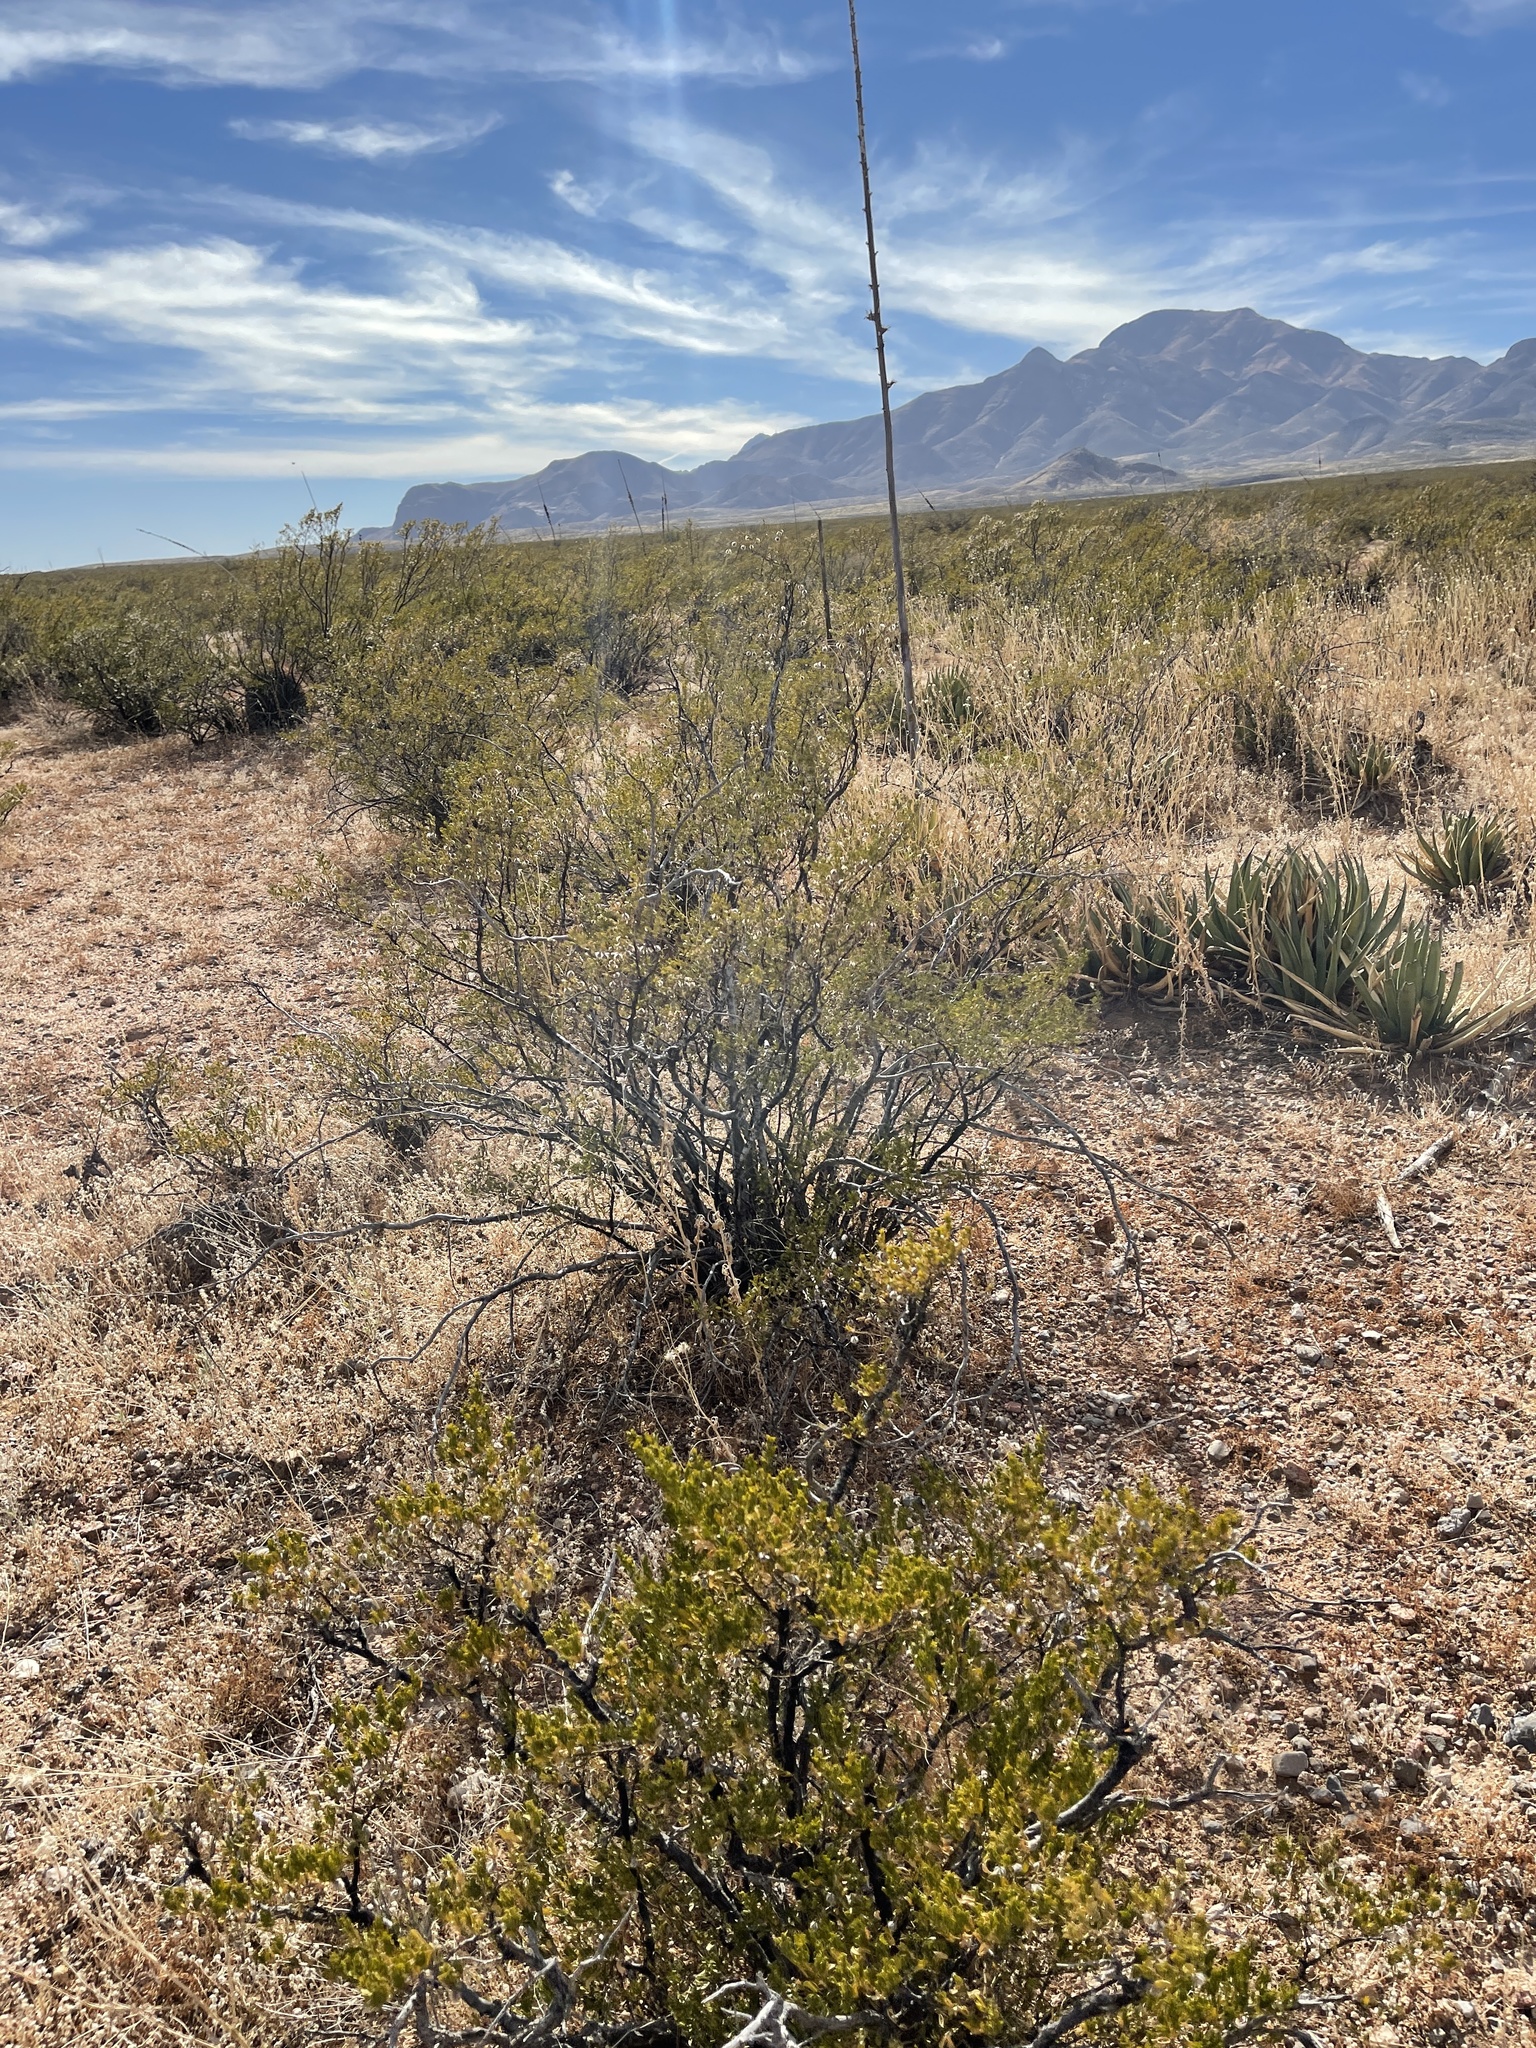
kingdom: Plantae
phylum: Tracheophyta
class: Magnoliopsida
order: Zygophyllales
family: Zygophyllaceae
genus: Larrea
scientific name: Larrea tridentata
